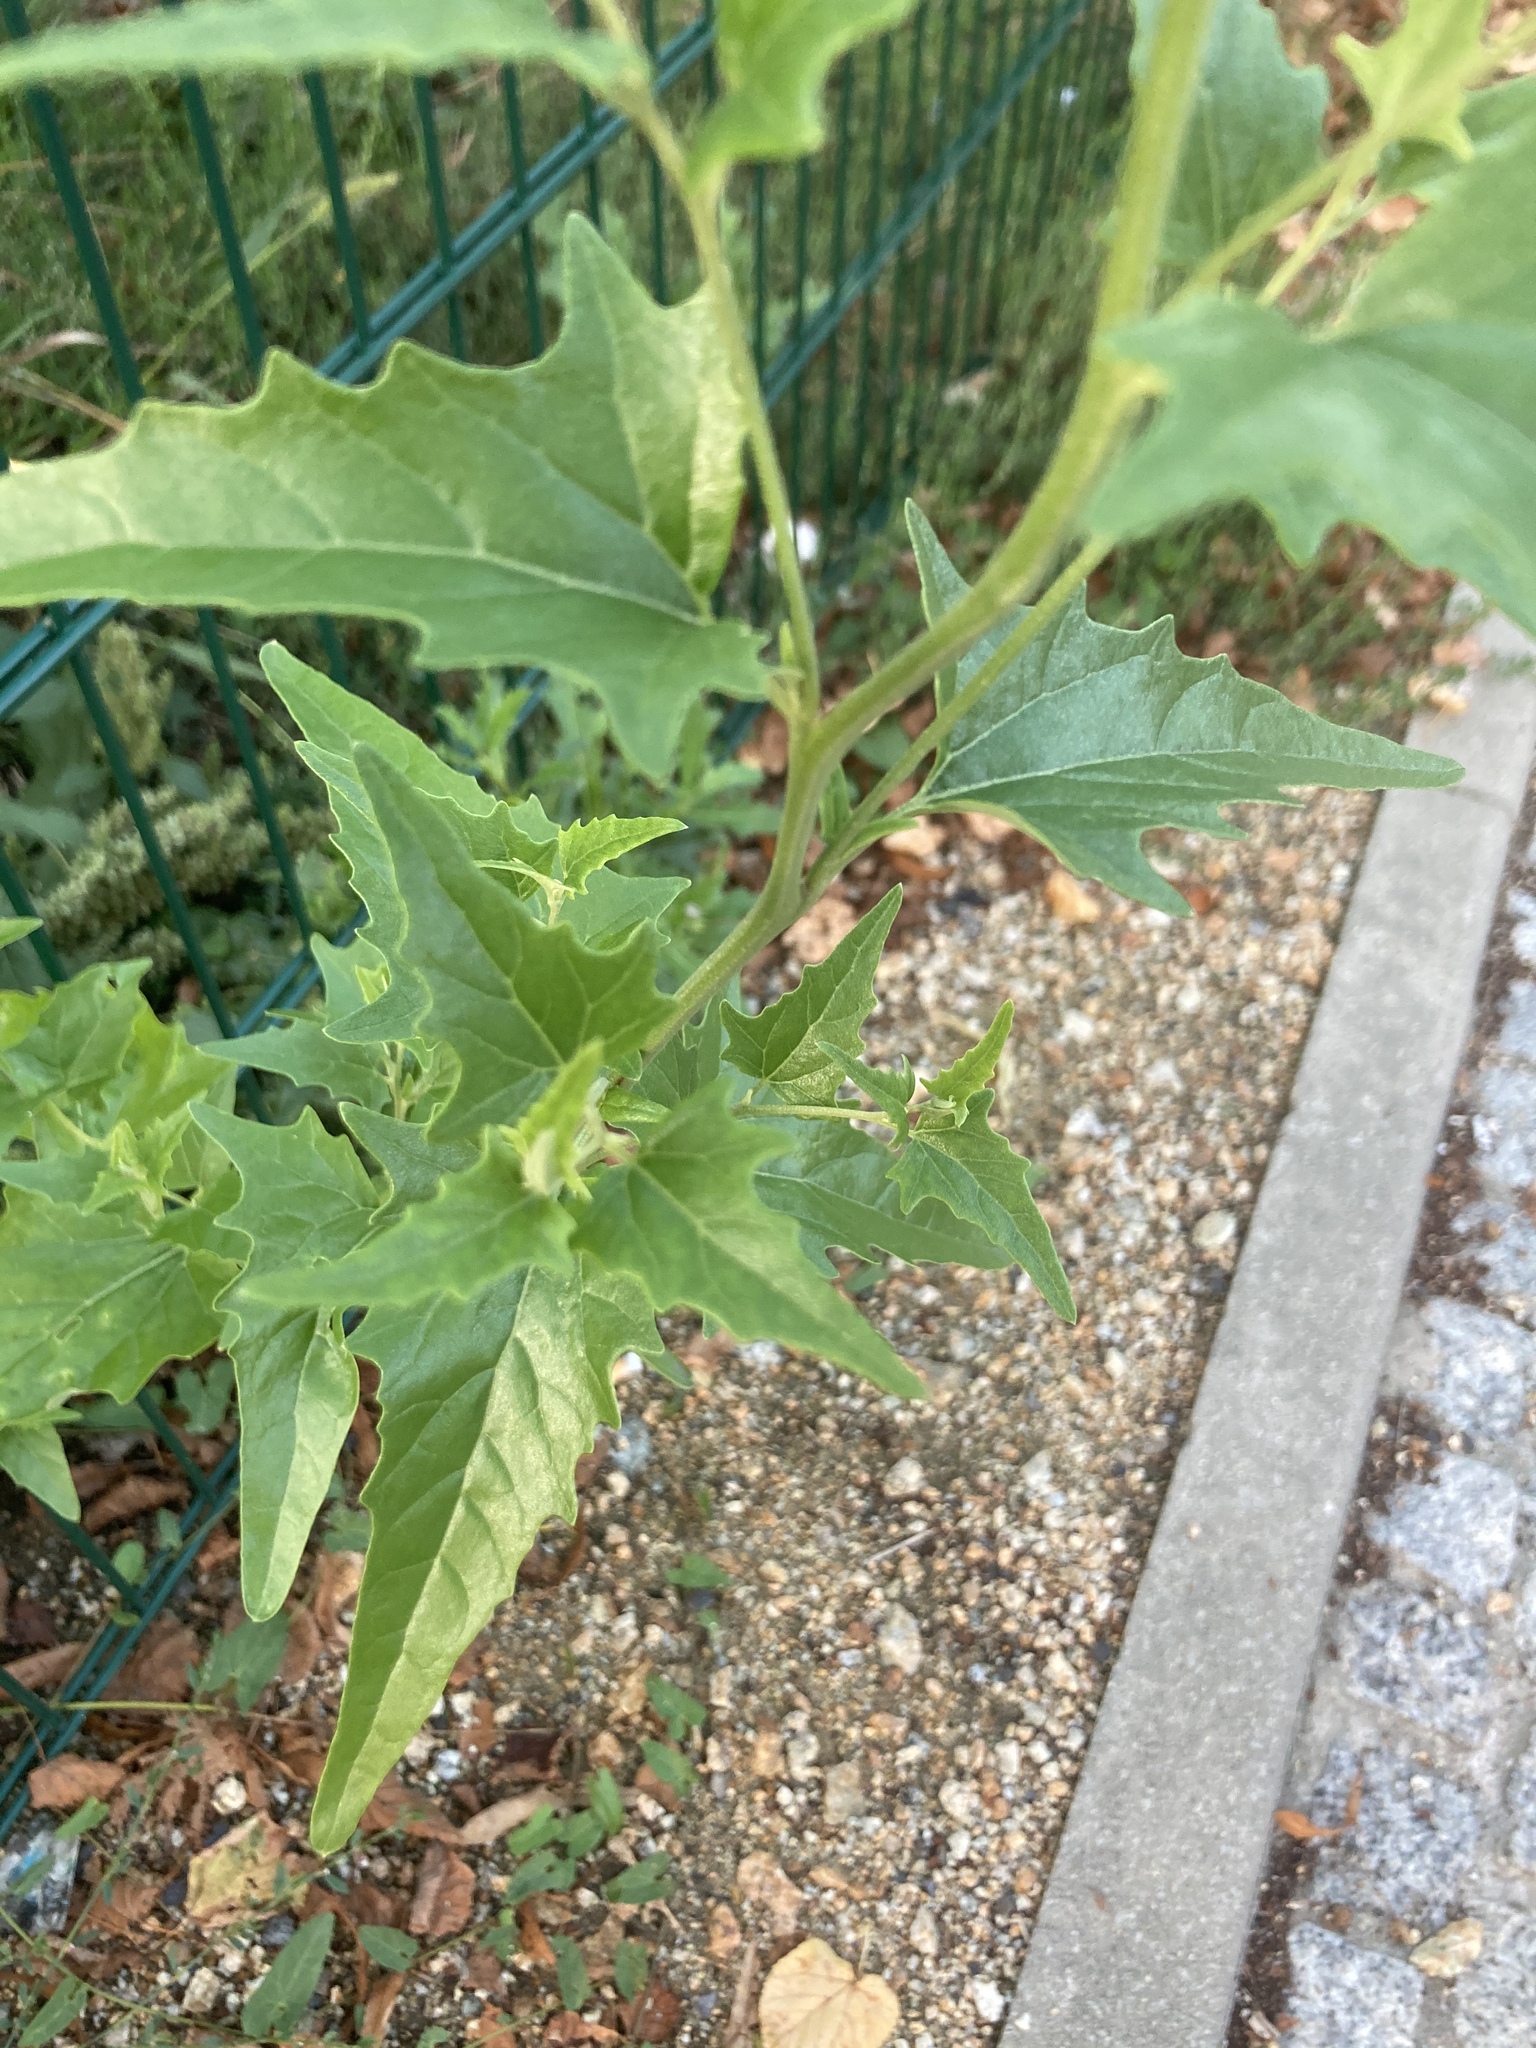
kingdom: Plantae
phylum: Tracheophyta
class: Magnoliopsida
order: Caryophyllales
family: Amaranthaceae
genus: Atriplex
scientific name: Atriplex sagittata
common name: Purple orache
